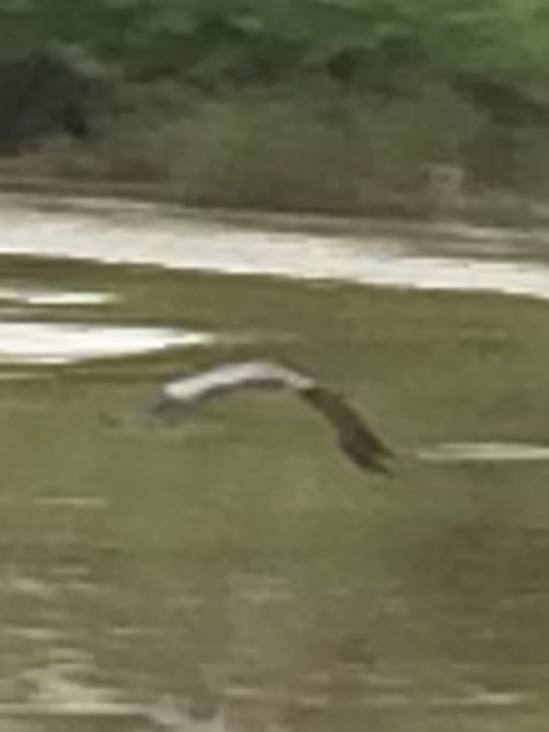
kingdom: Animalia
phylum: Chordata
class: Aves
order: Pelecaniformes
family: Ardeidae
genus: Ardea
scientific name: Ardea cinerea
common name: Grey heron
